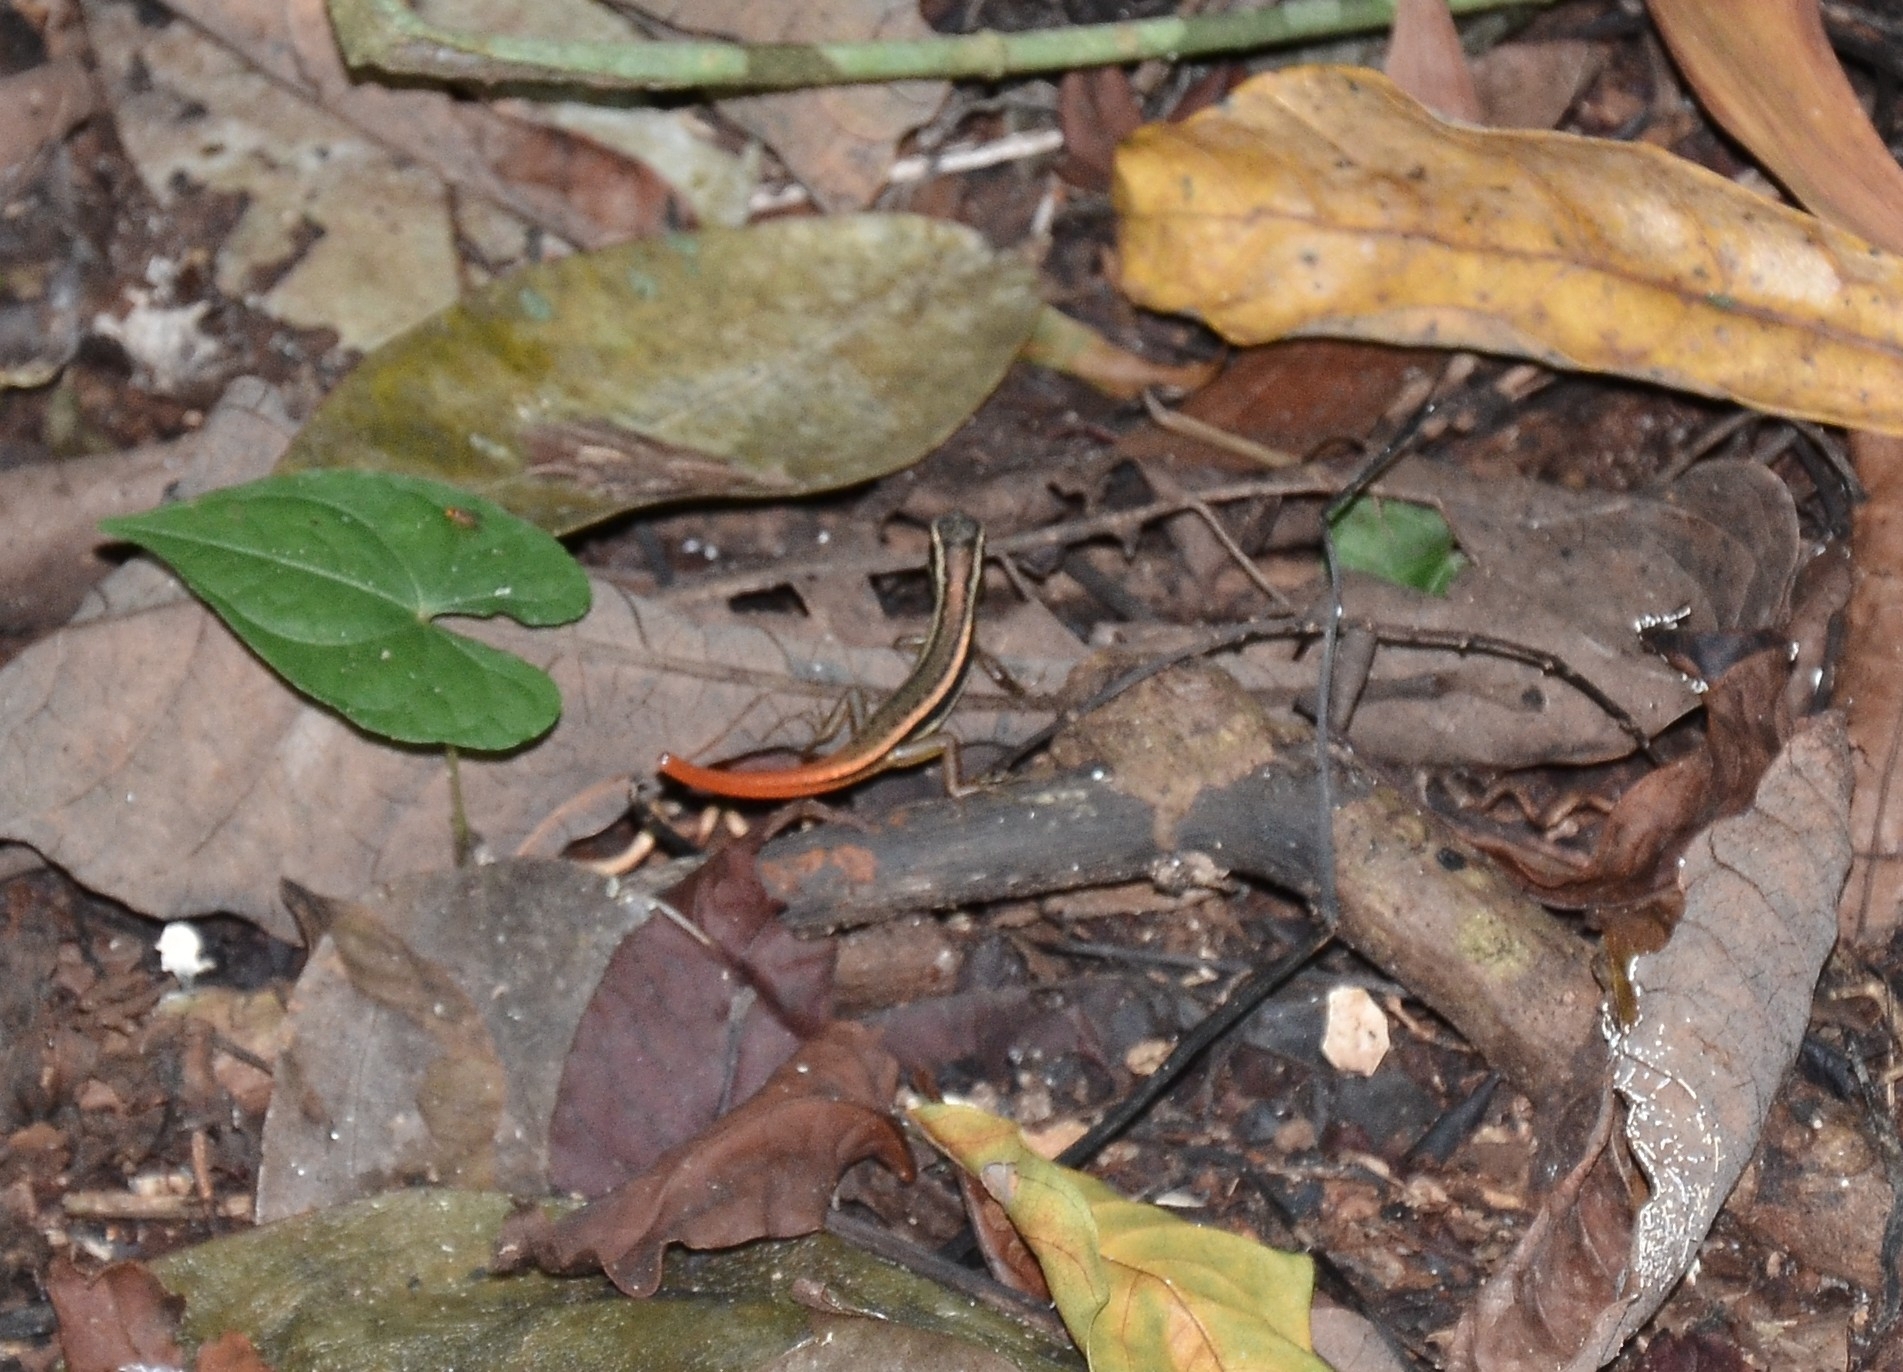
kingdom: Animalia
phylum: Chordata
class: Squamata
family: Scincidae
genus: Sphenomorphus
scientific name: Sphenomorphus dussumieri
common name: Dussumier's forest skink
